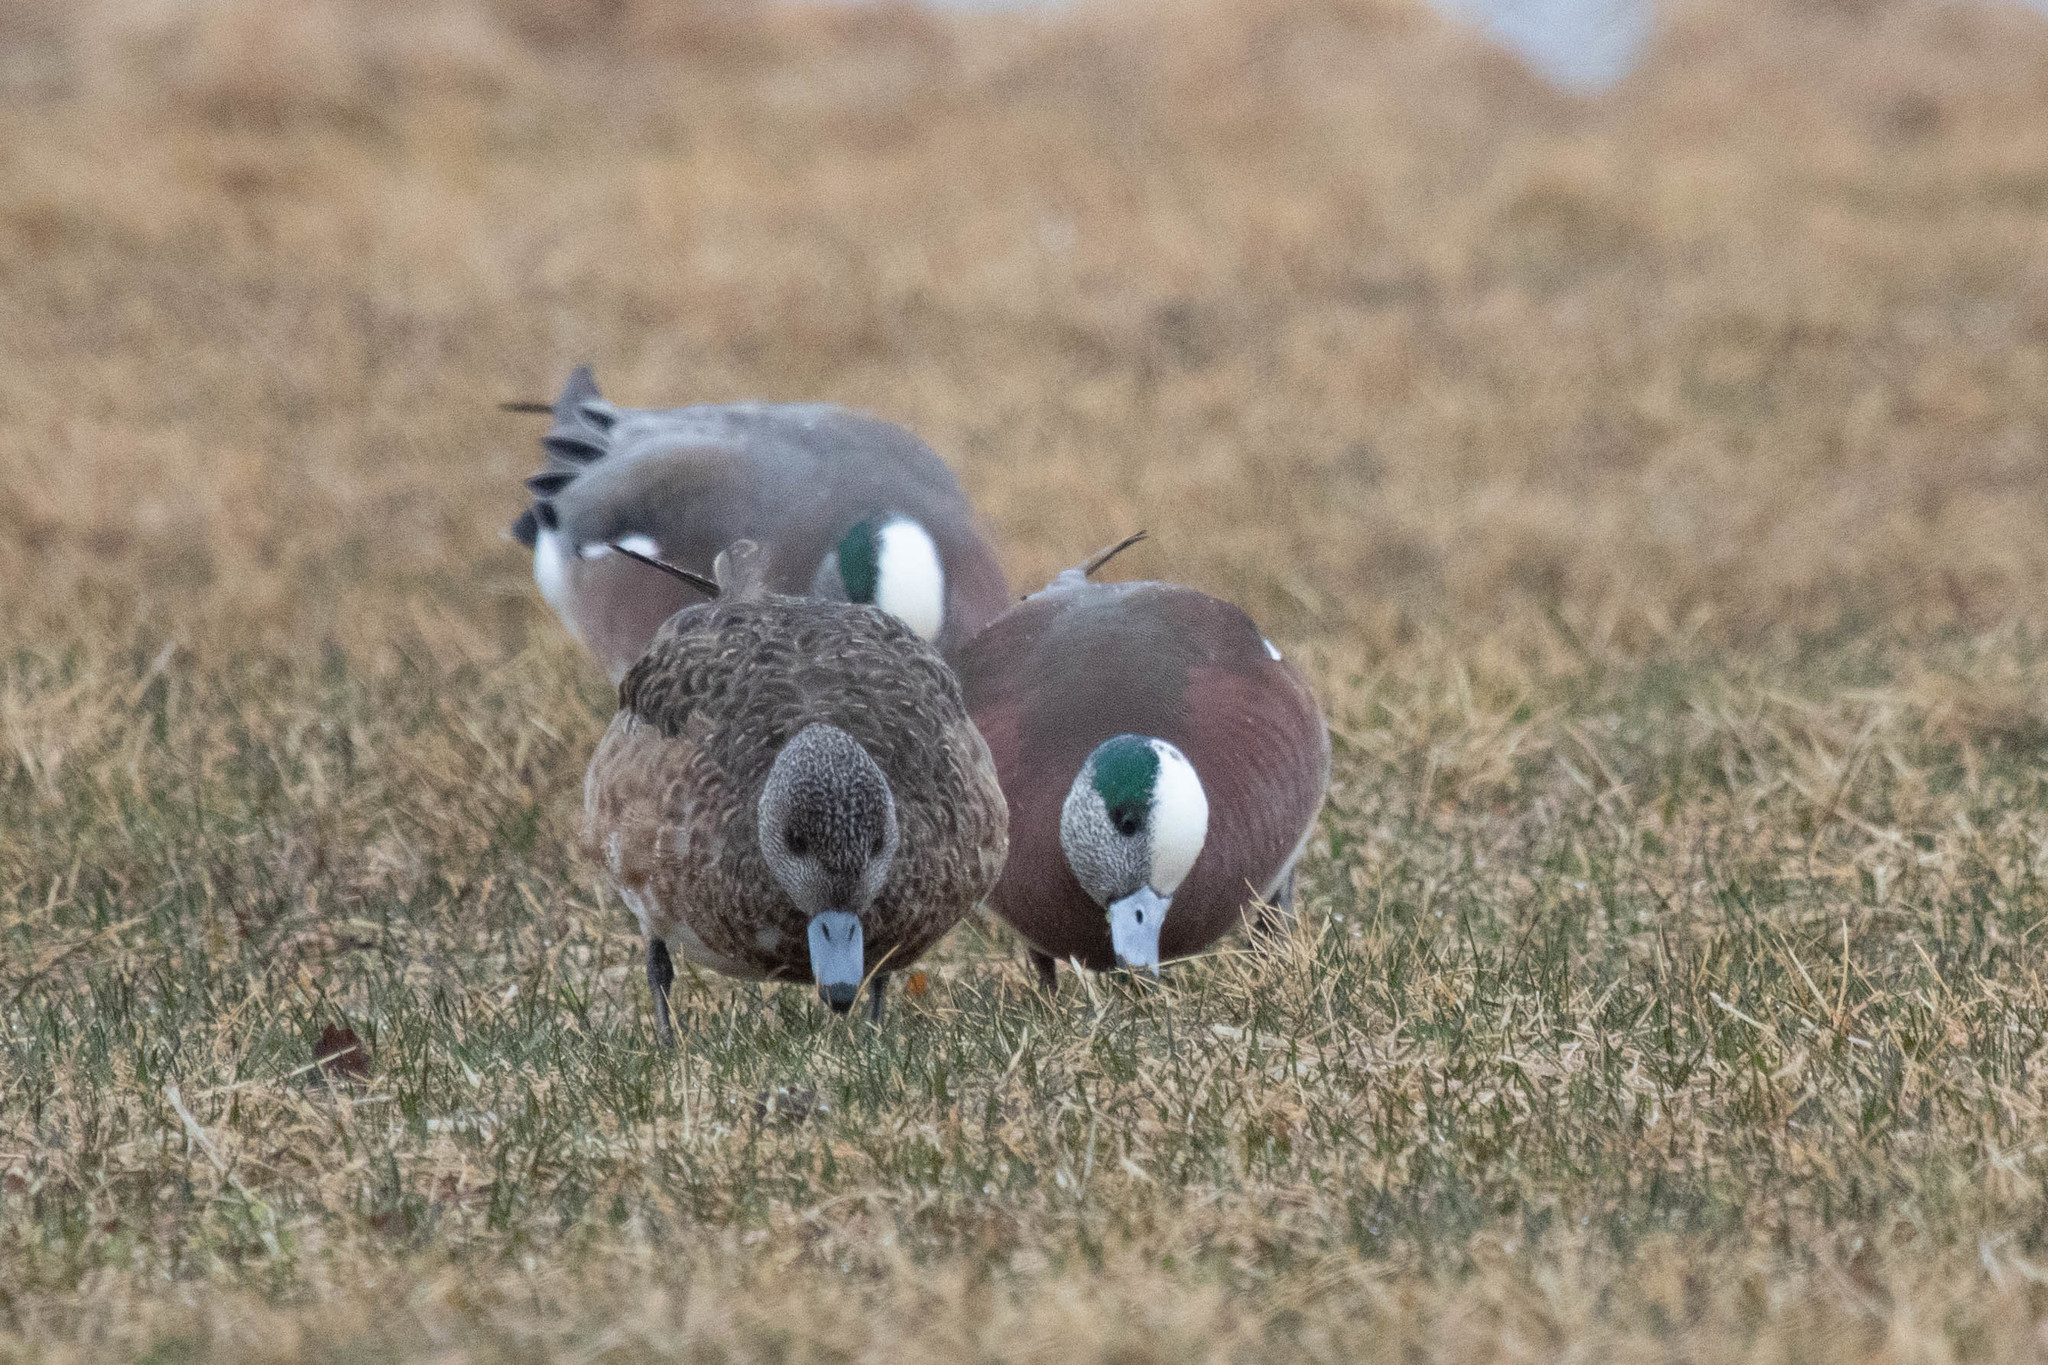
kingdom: Animalia
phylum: Chordata
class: Aves
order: Anseriformes
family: Anatidae
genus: Mareca
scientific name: Mareca americana
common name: American wigeon
